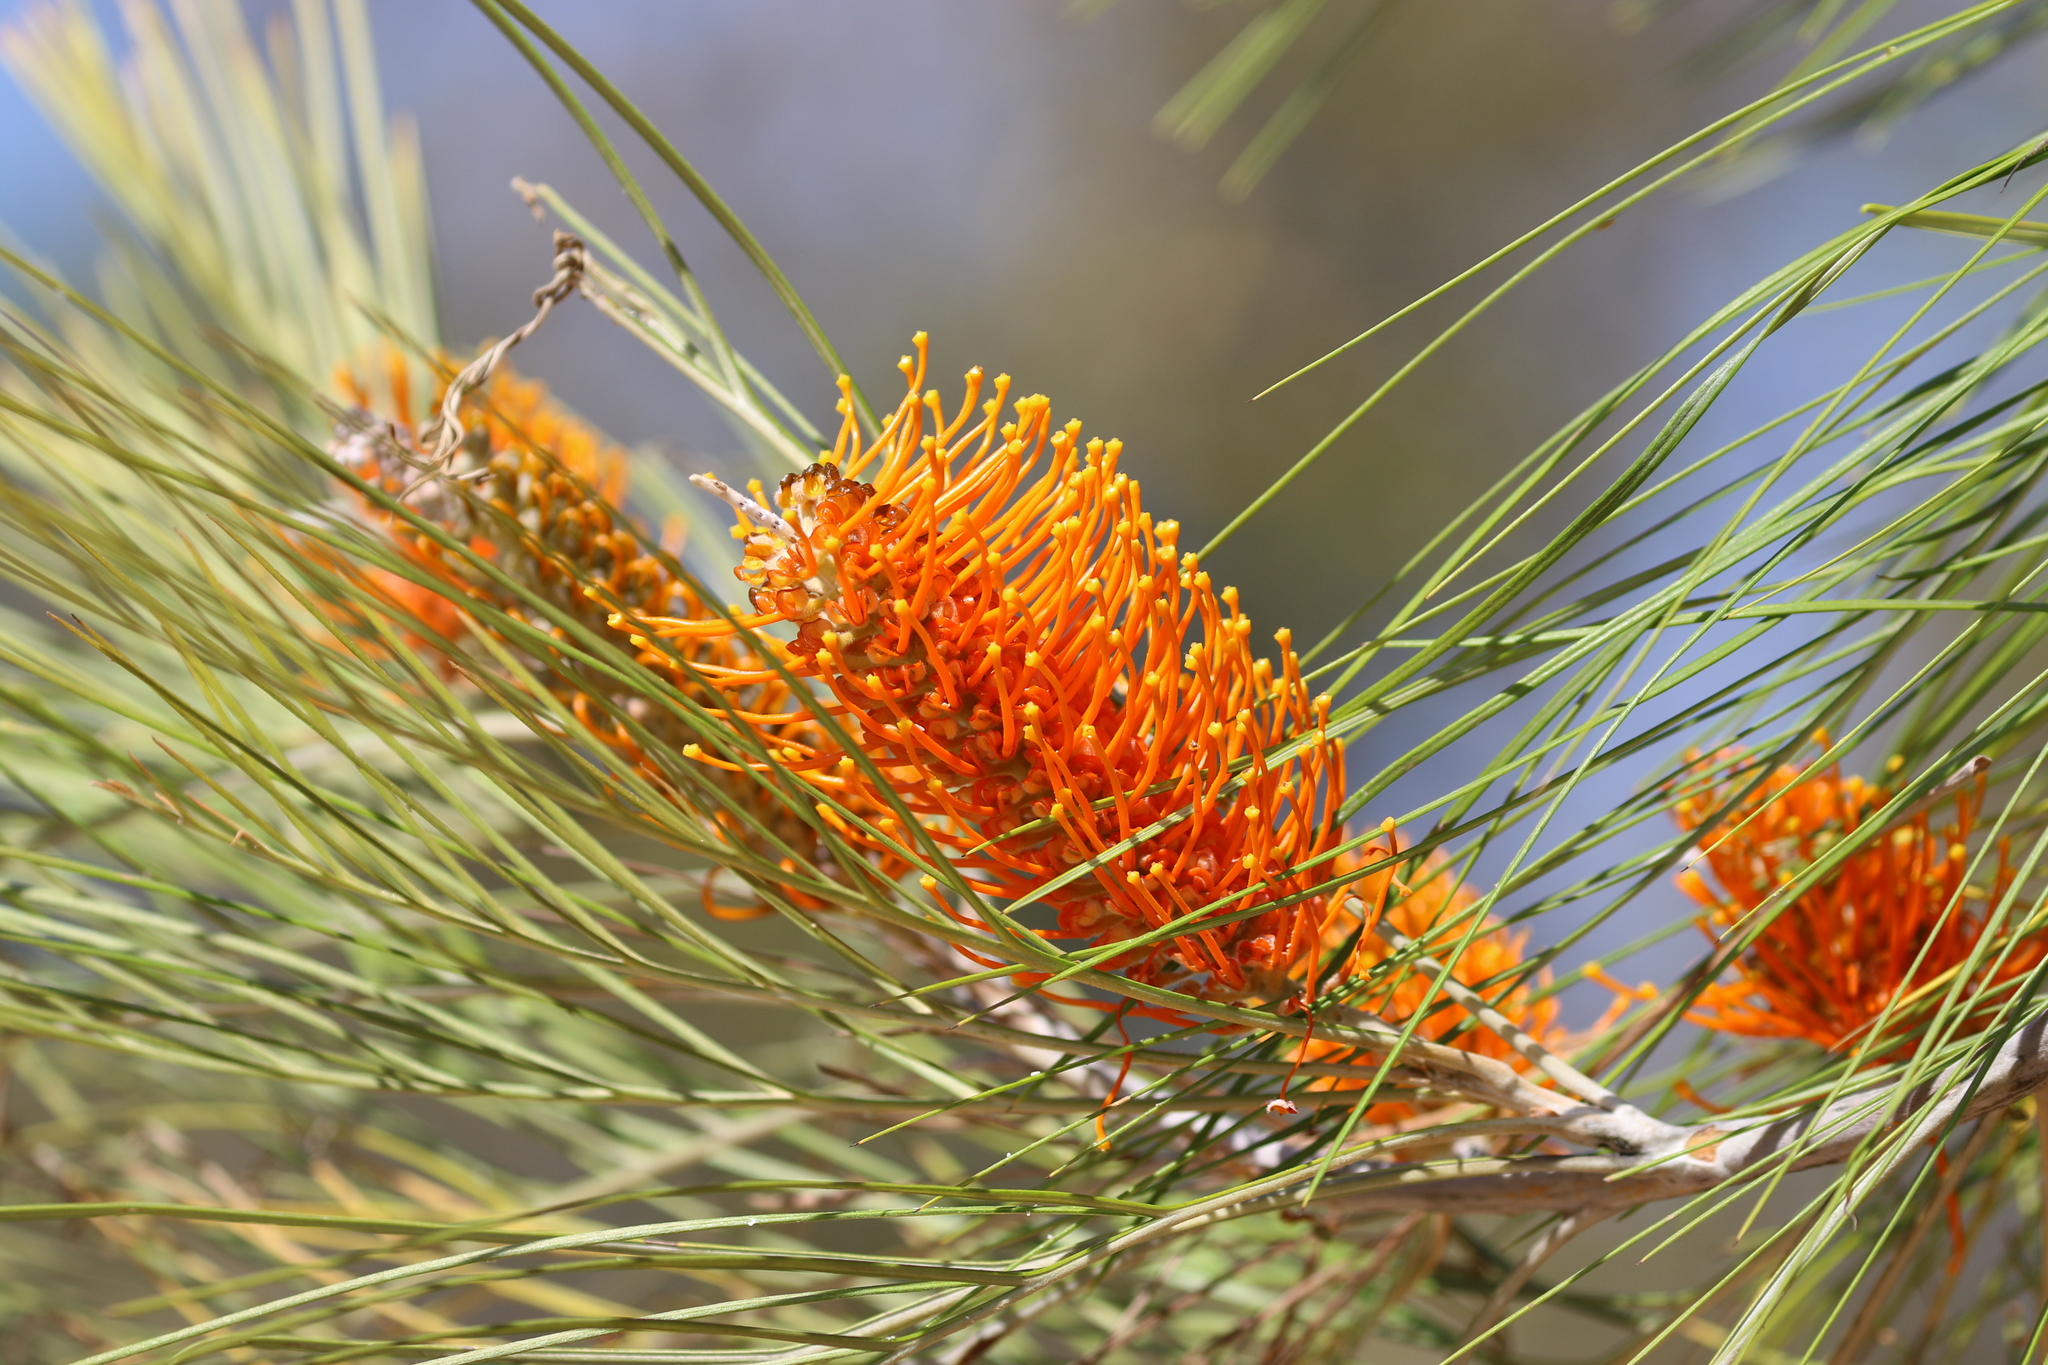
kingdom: Plantae
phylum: Tracheophyta
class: Magnoliopsida
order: Proteales
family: Proteaceae
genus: Grevillea
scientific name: Grevillea pteridifolia
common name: Golden grevillea
